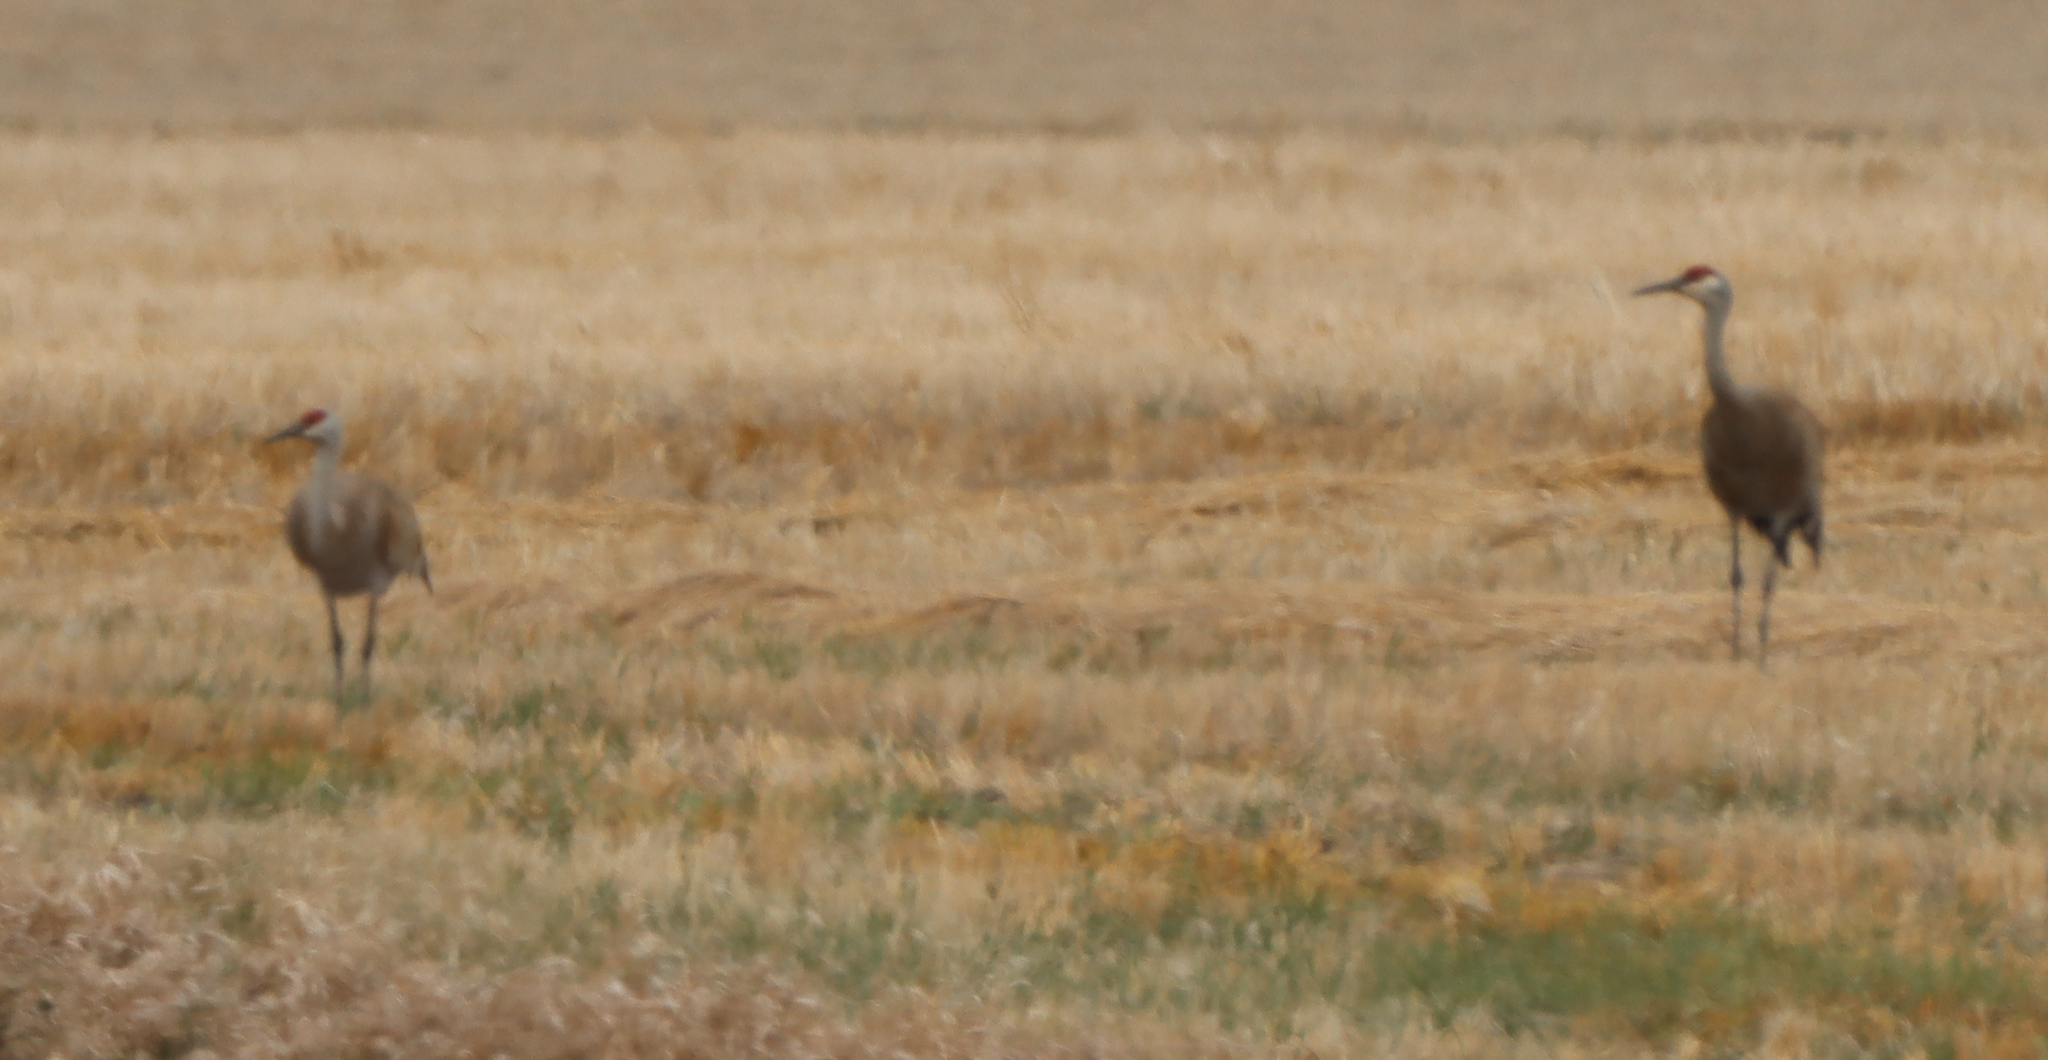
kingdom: Animalia
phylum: Chordata
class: Aves
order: Gruiformes
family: Gruidae
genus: Grus
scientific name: Grus canadensis
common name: Sandhill crane
